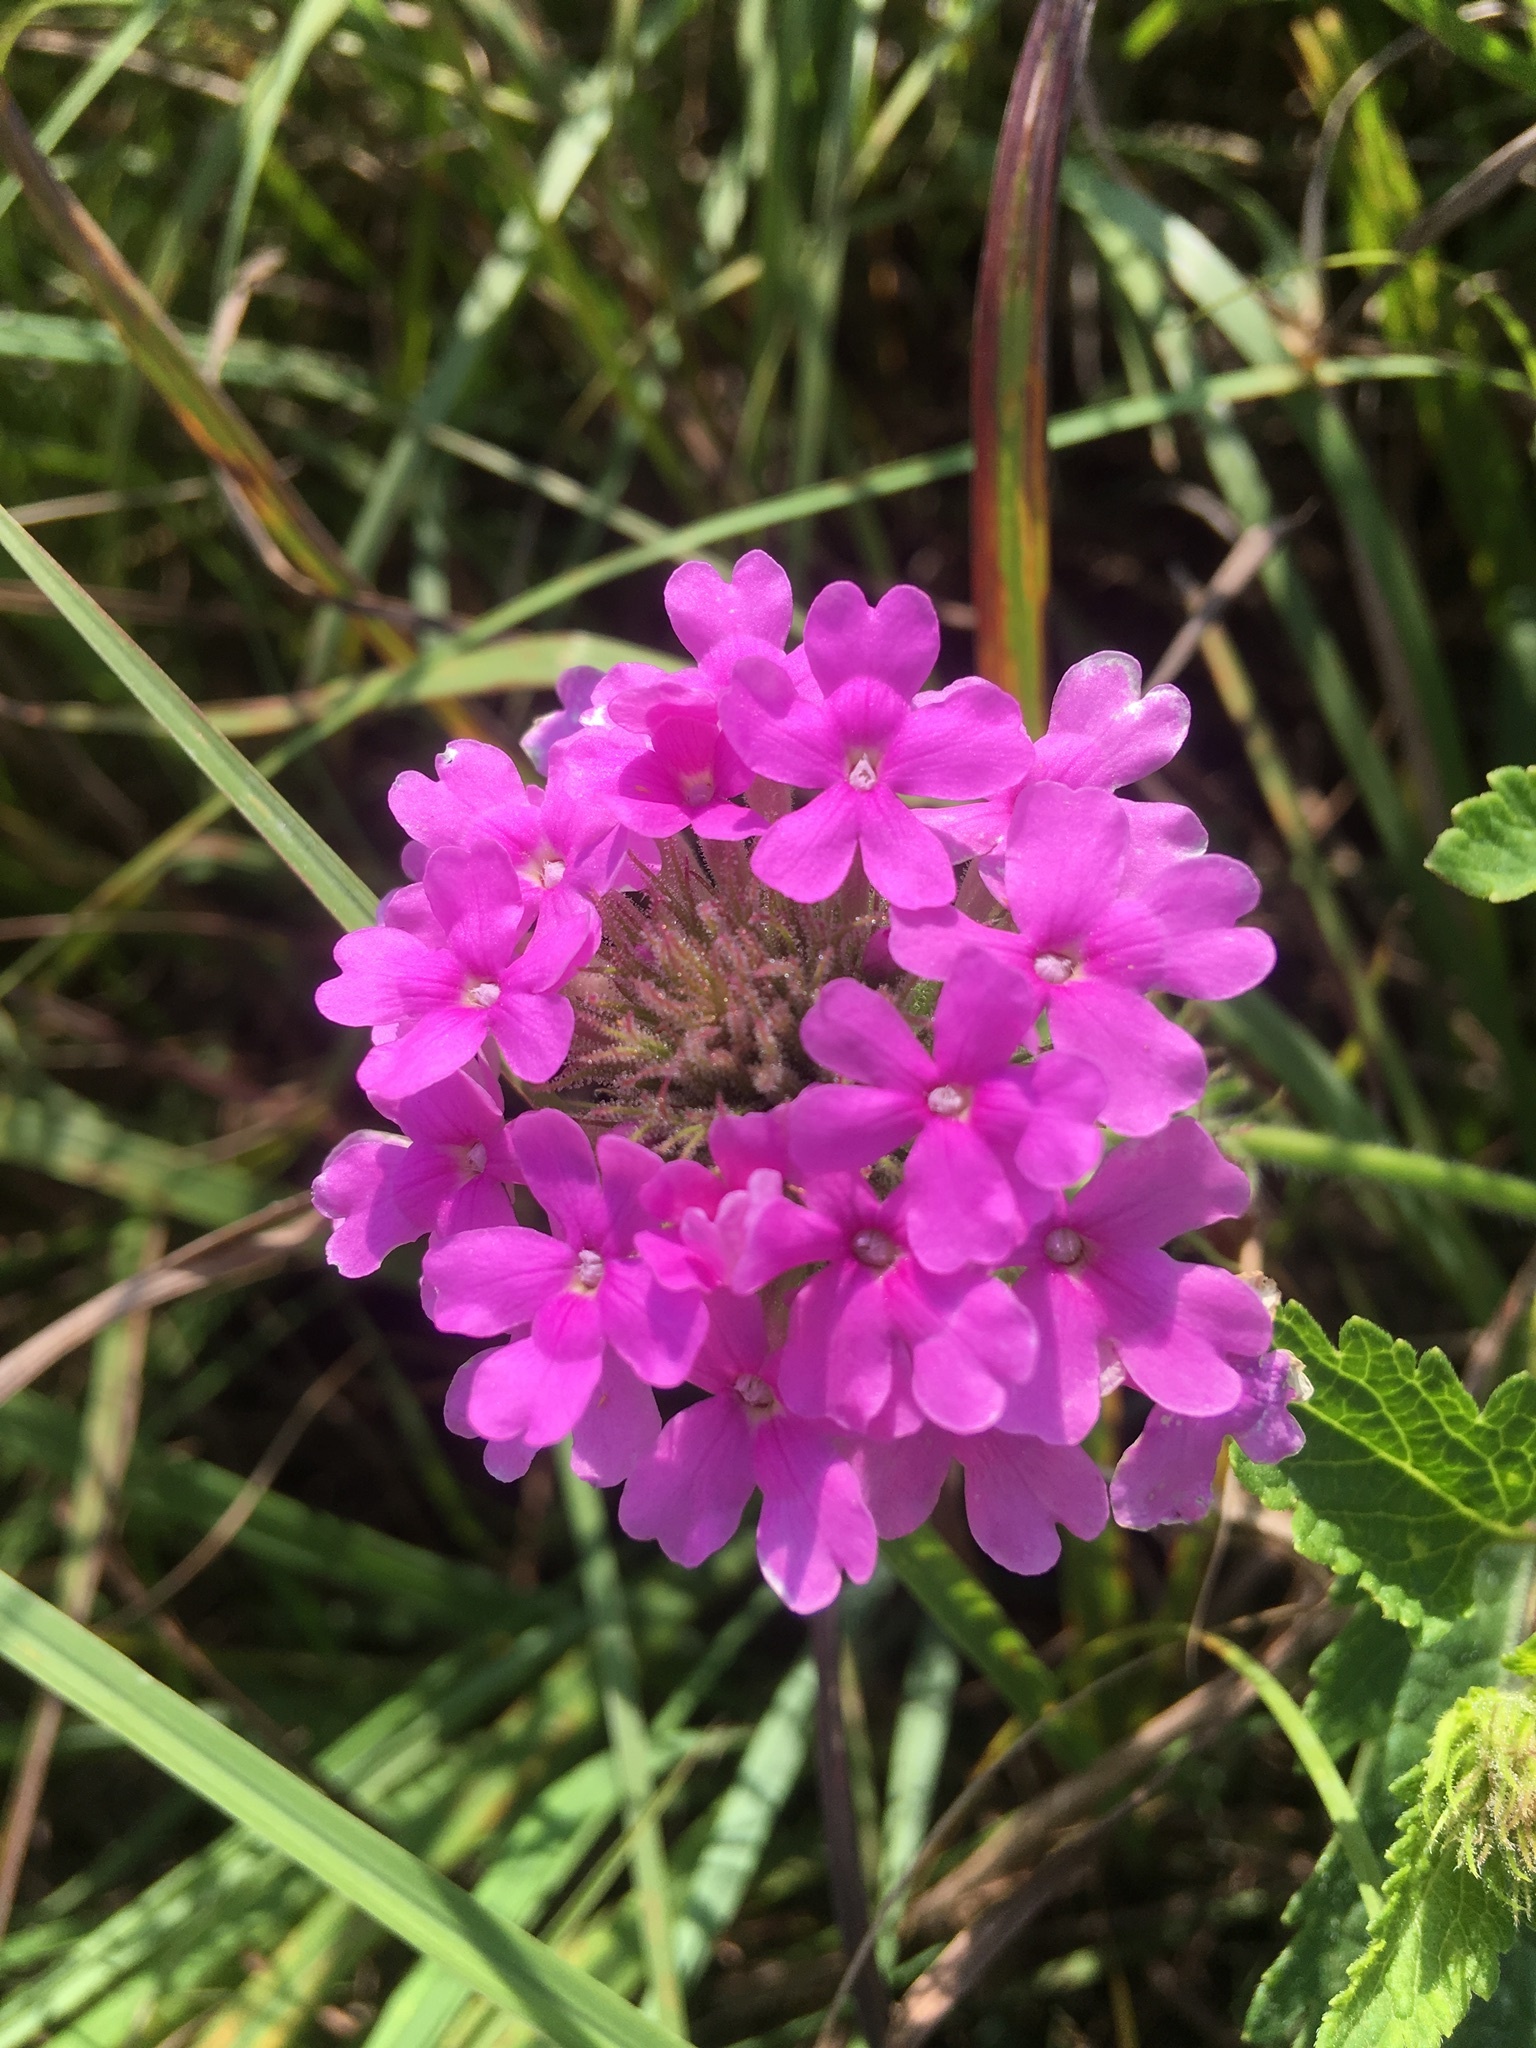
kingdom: Plantae
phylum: Tracheophyta
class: Magnoliopsida
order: Lamiales
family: Verbenaceae
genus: Verbena
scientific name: Verbena canadensis
